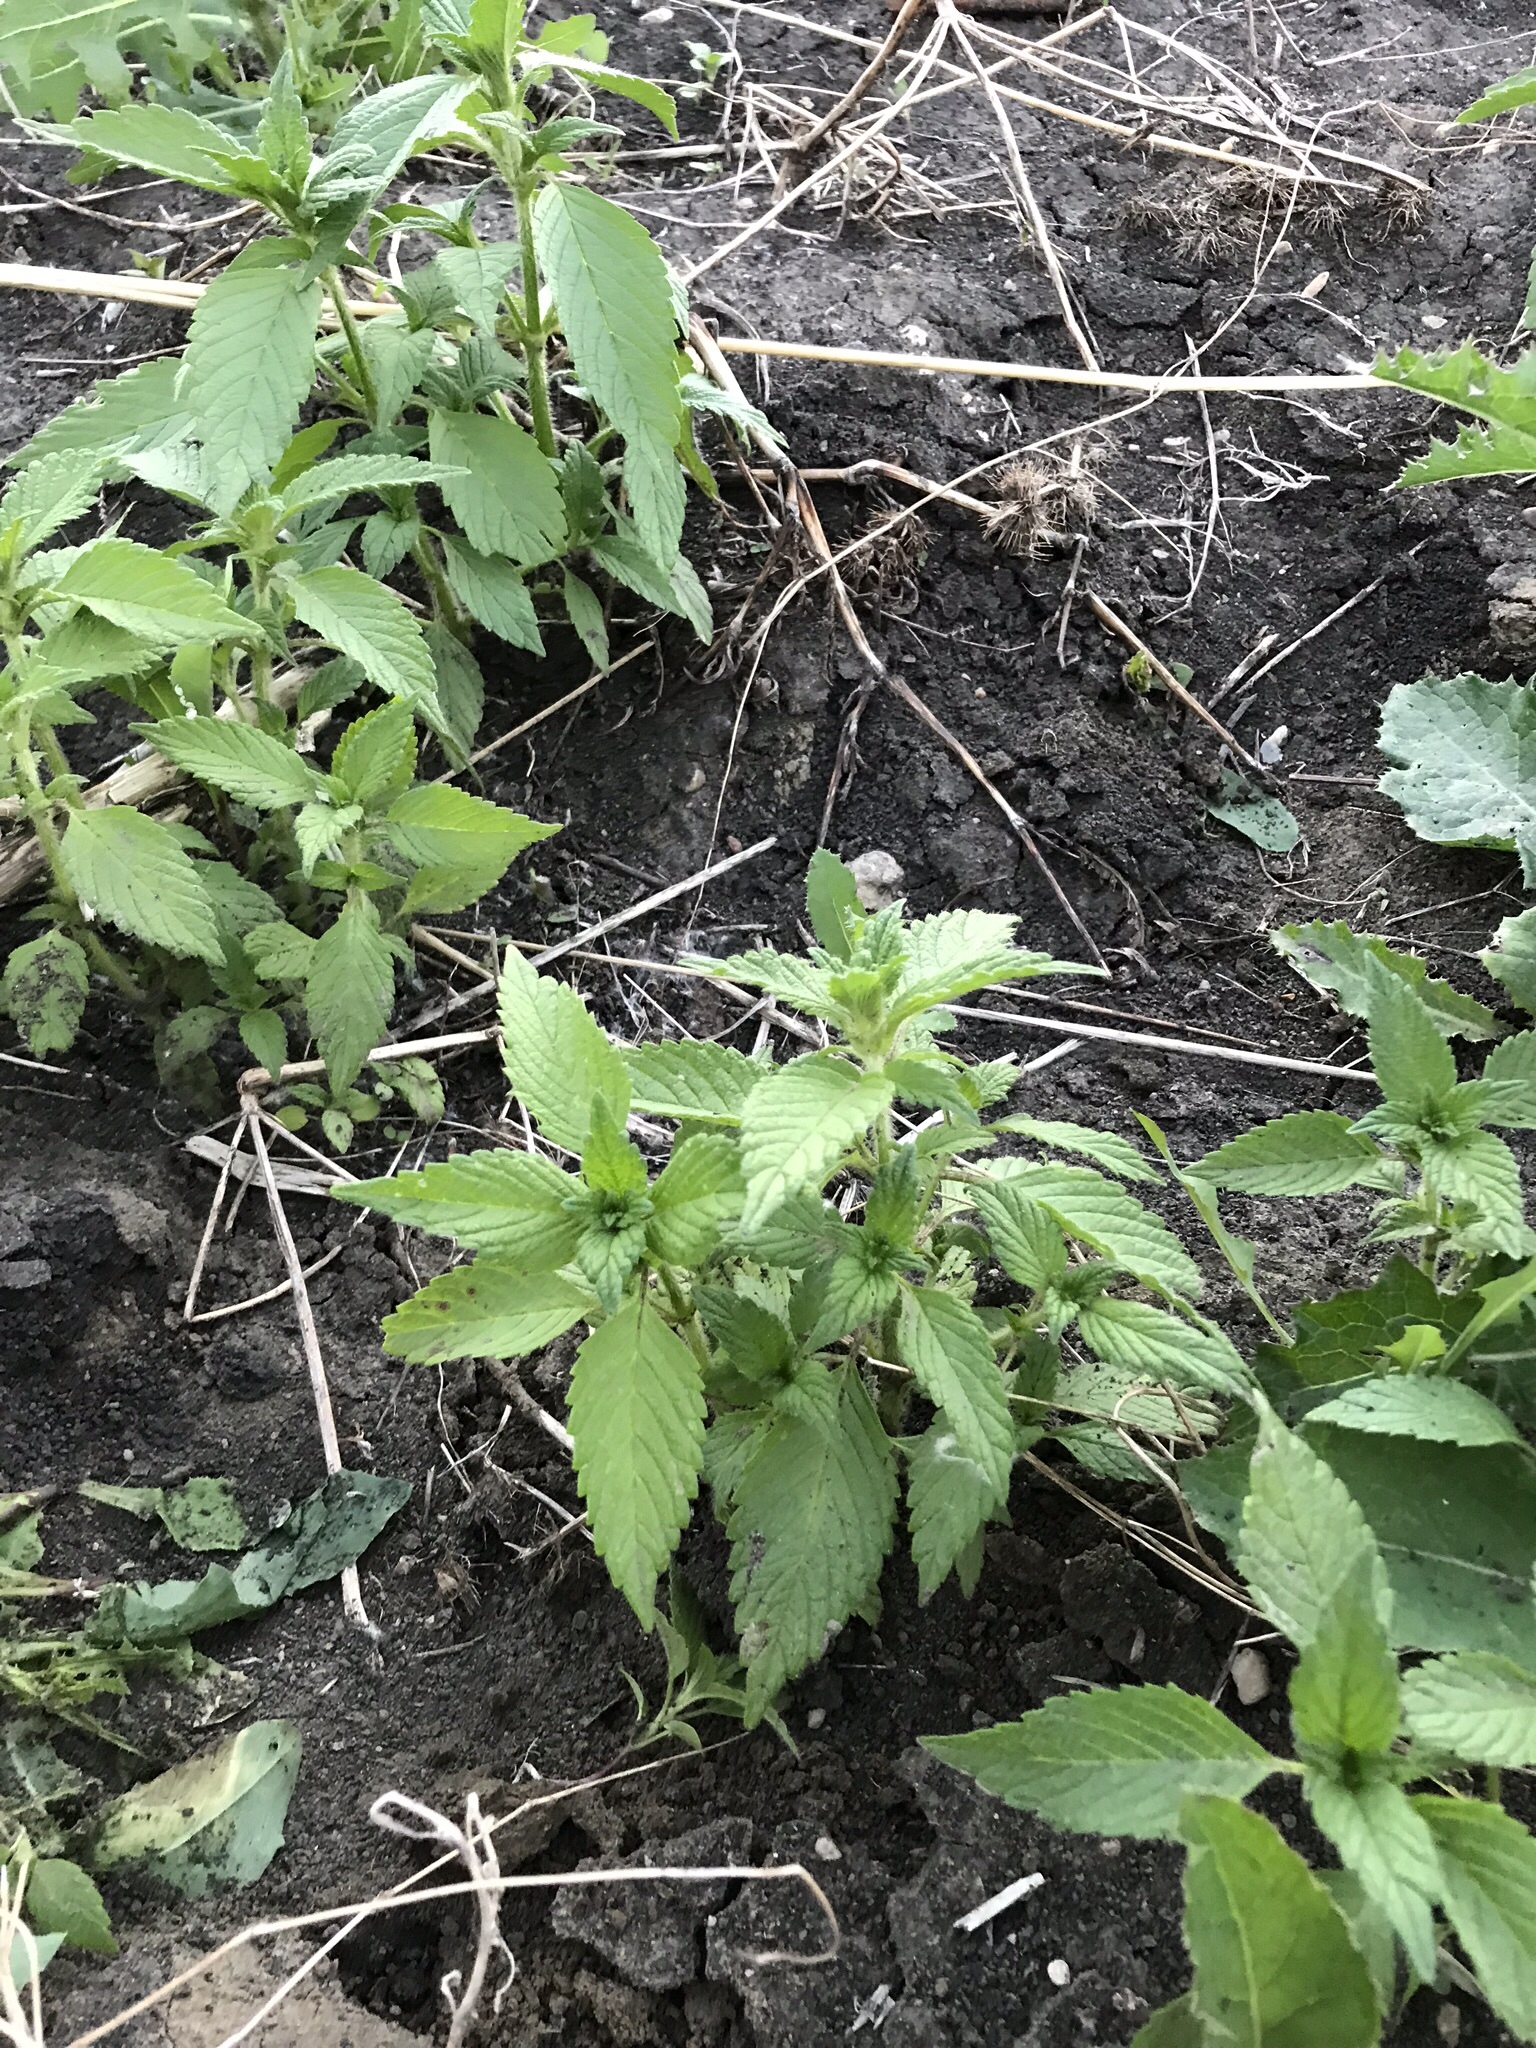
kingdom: Plantae
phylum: Tracheophyta
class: Magnoliopsida
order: Lamiales
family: Lamiaceae
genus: Galeopsis
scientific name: Galeopsis
